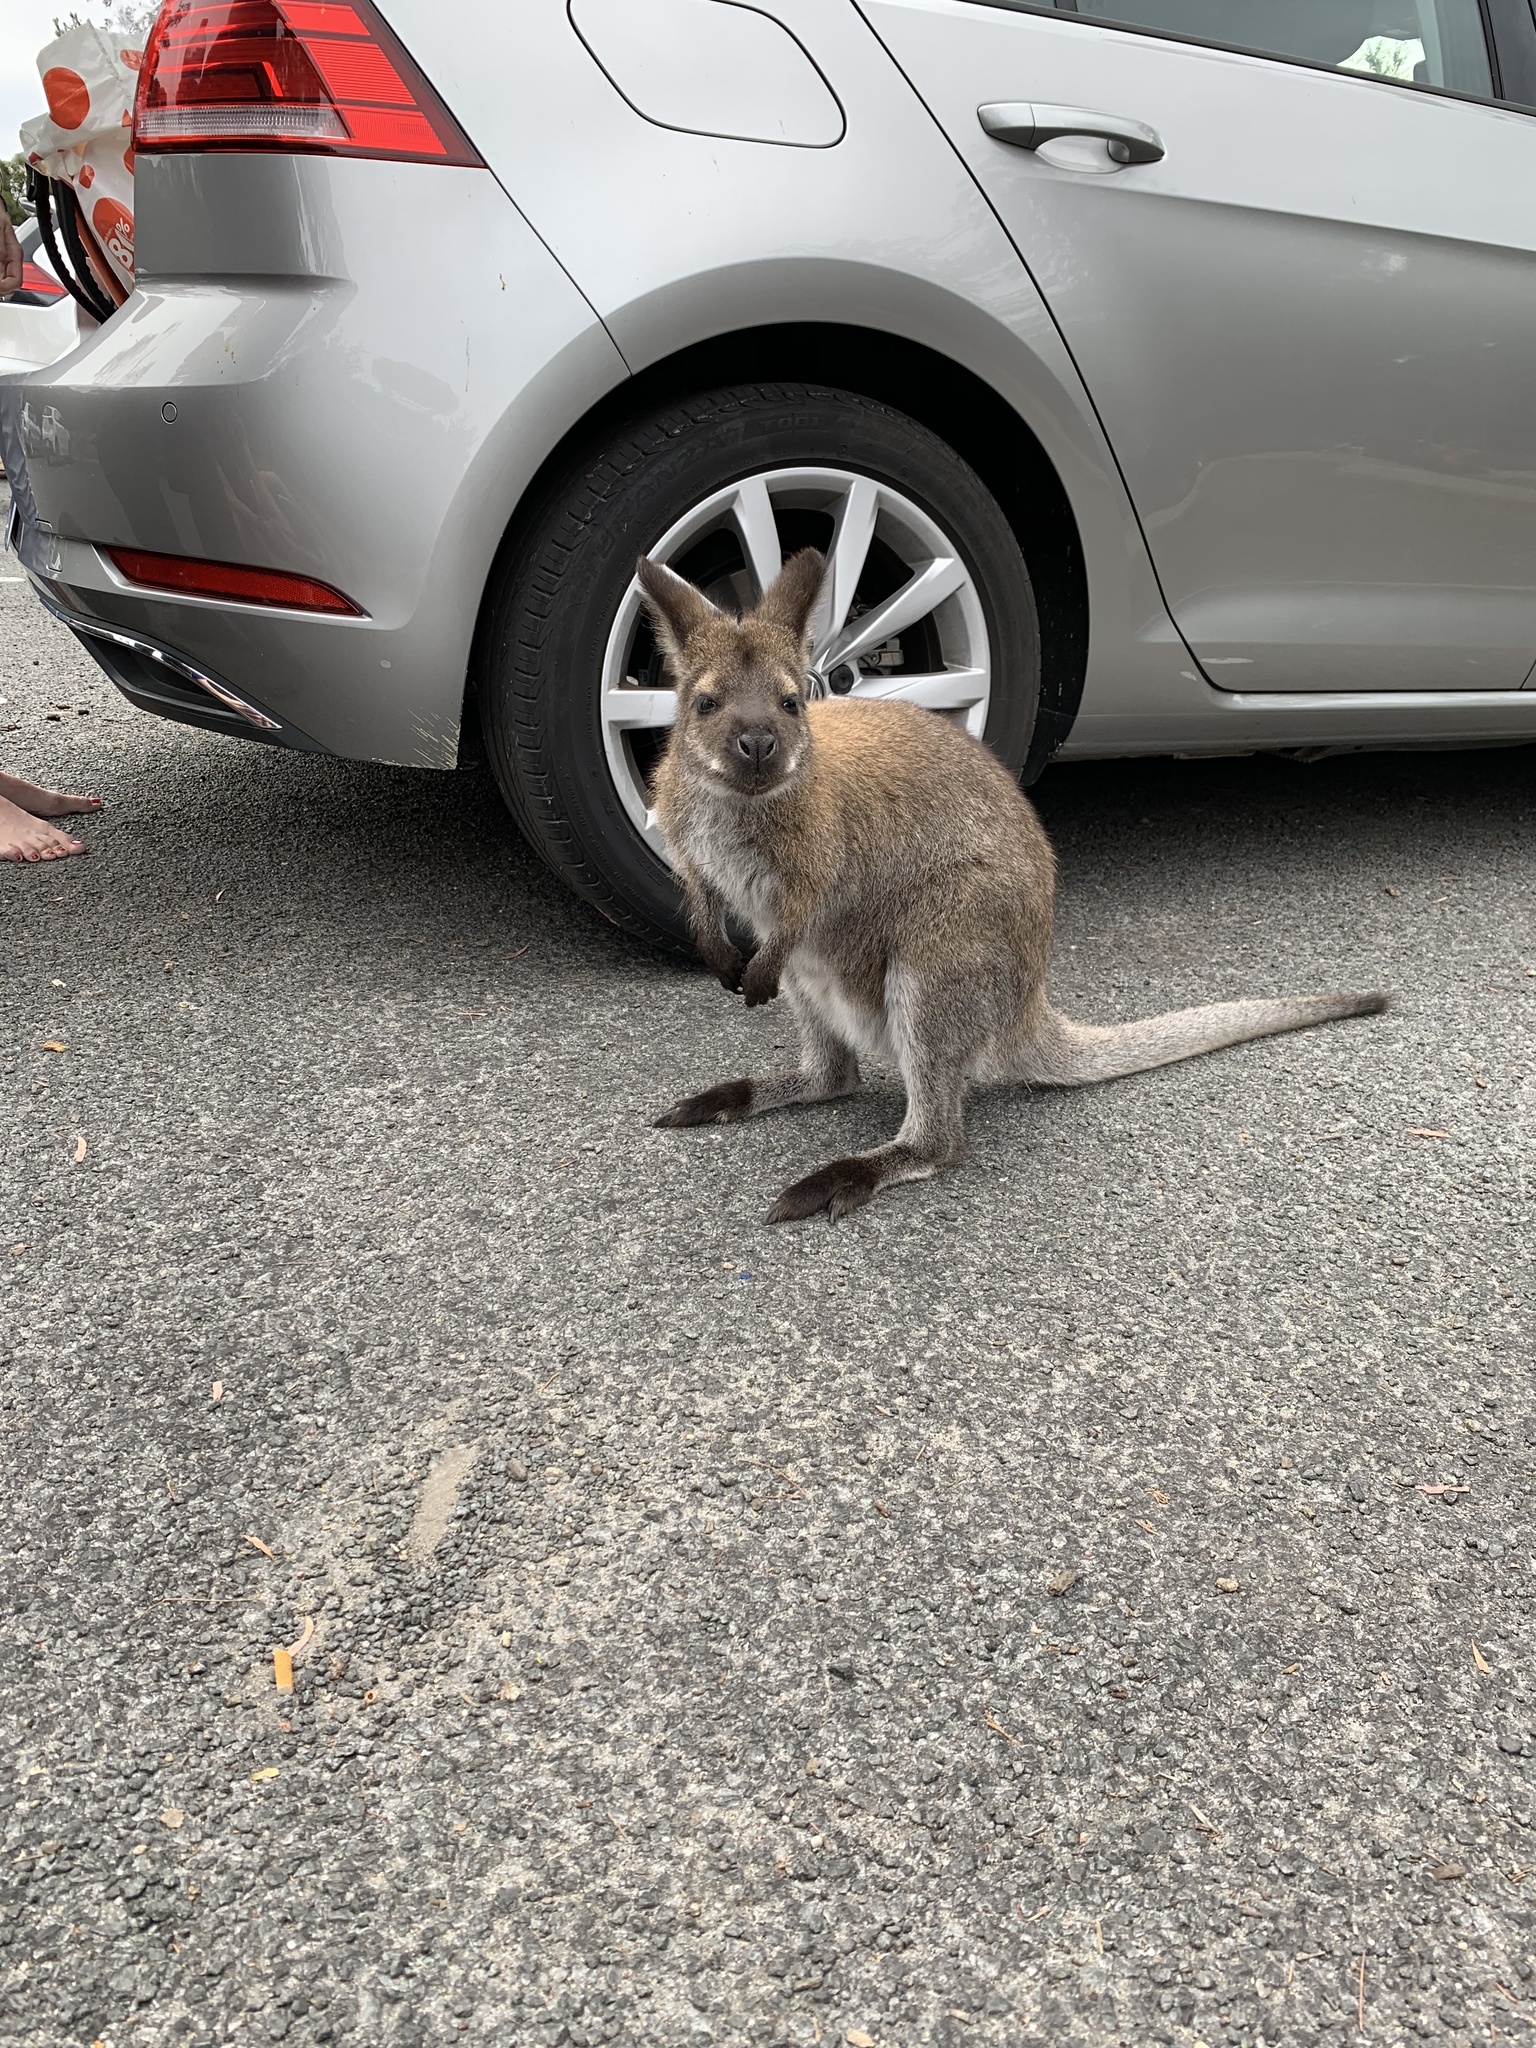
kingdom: Animalia
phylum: Chordata
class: Mammalia
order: Diprotodontia
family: Macropodidae
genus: Notamacropus
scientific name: Notamacropus rufogriseus
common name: Red-necked wallaby
